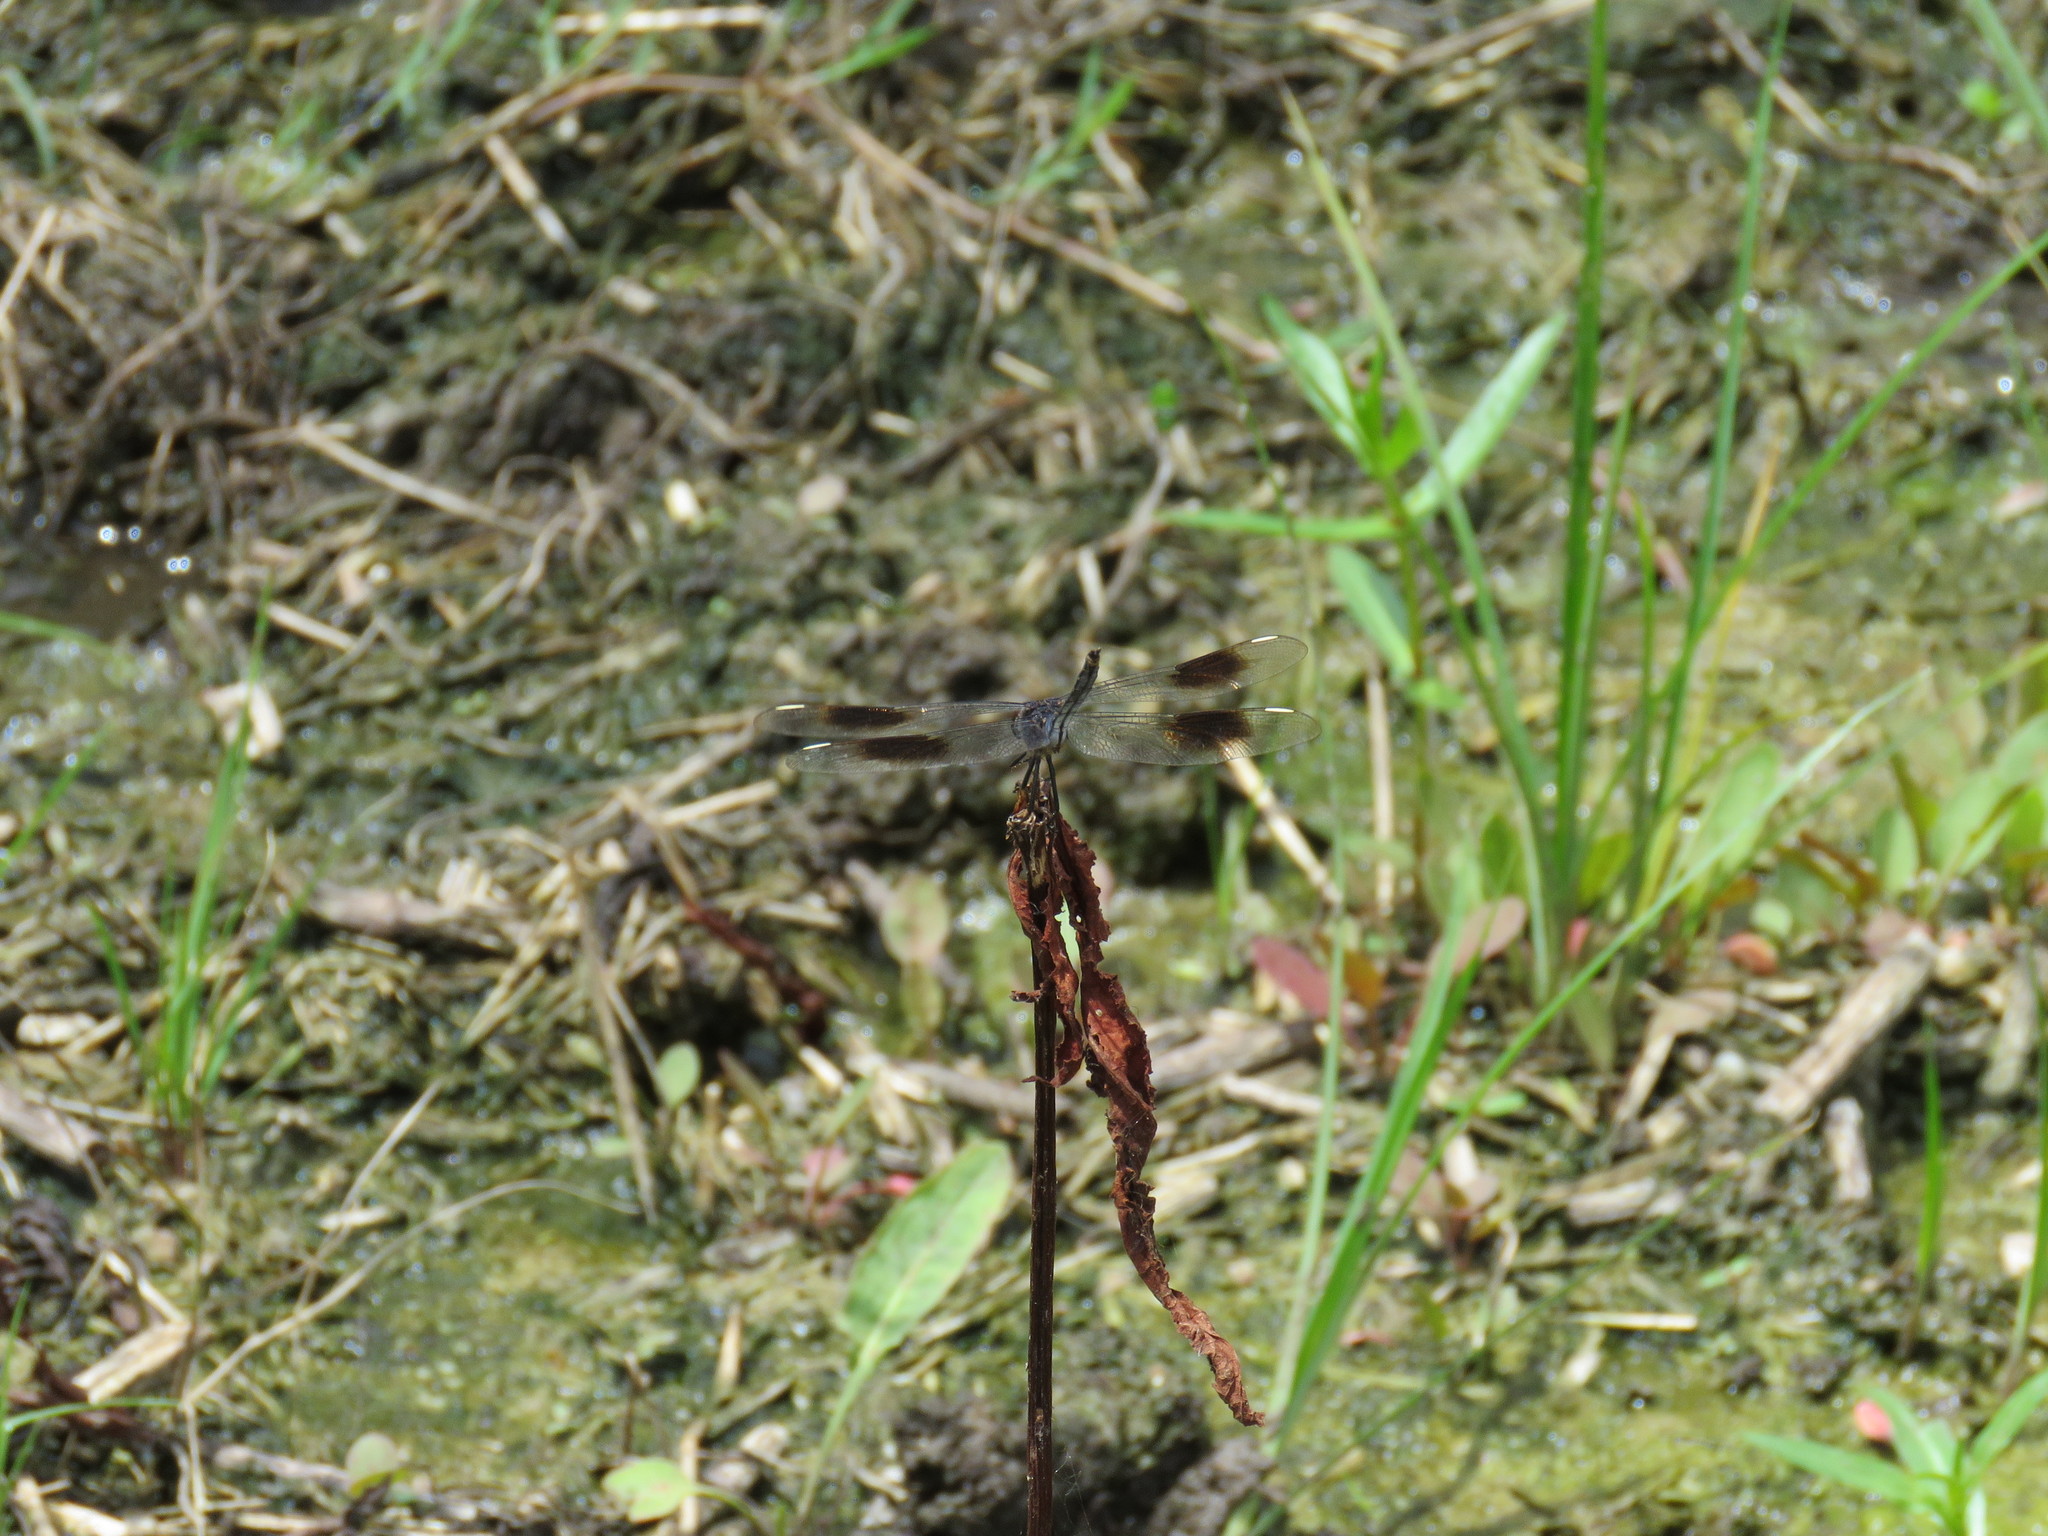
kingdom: Animalia
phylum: Arthropoda
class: Insecta
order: Odonata
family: Libellulidae
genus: Brachymesia
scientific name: Brachymesia gravida
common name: Four-spotted pennant
